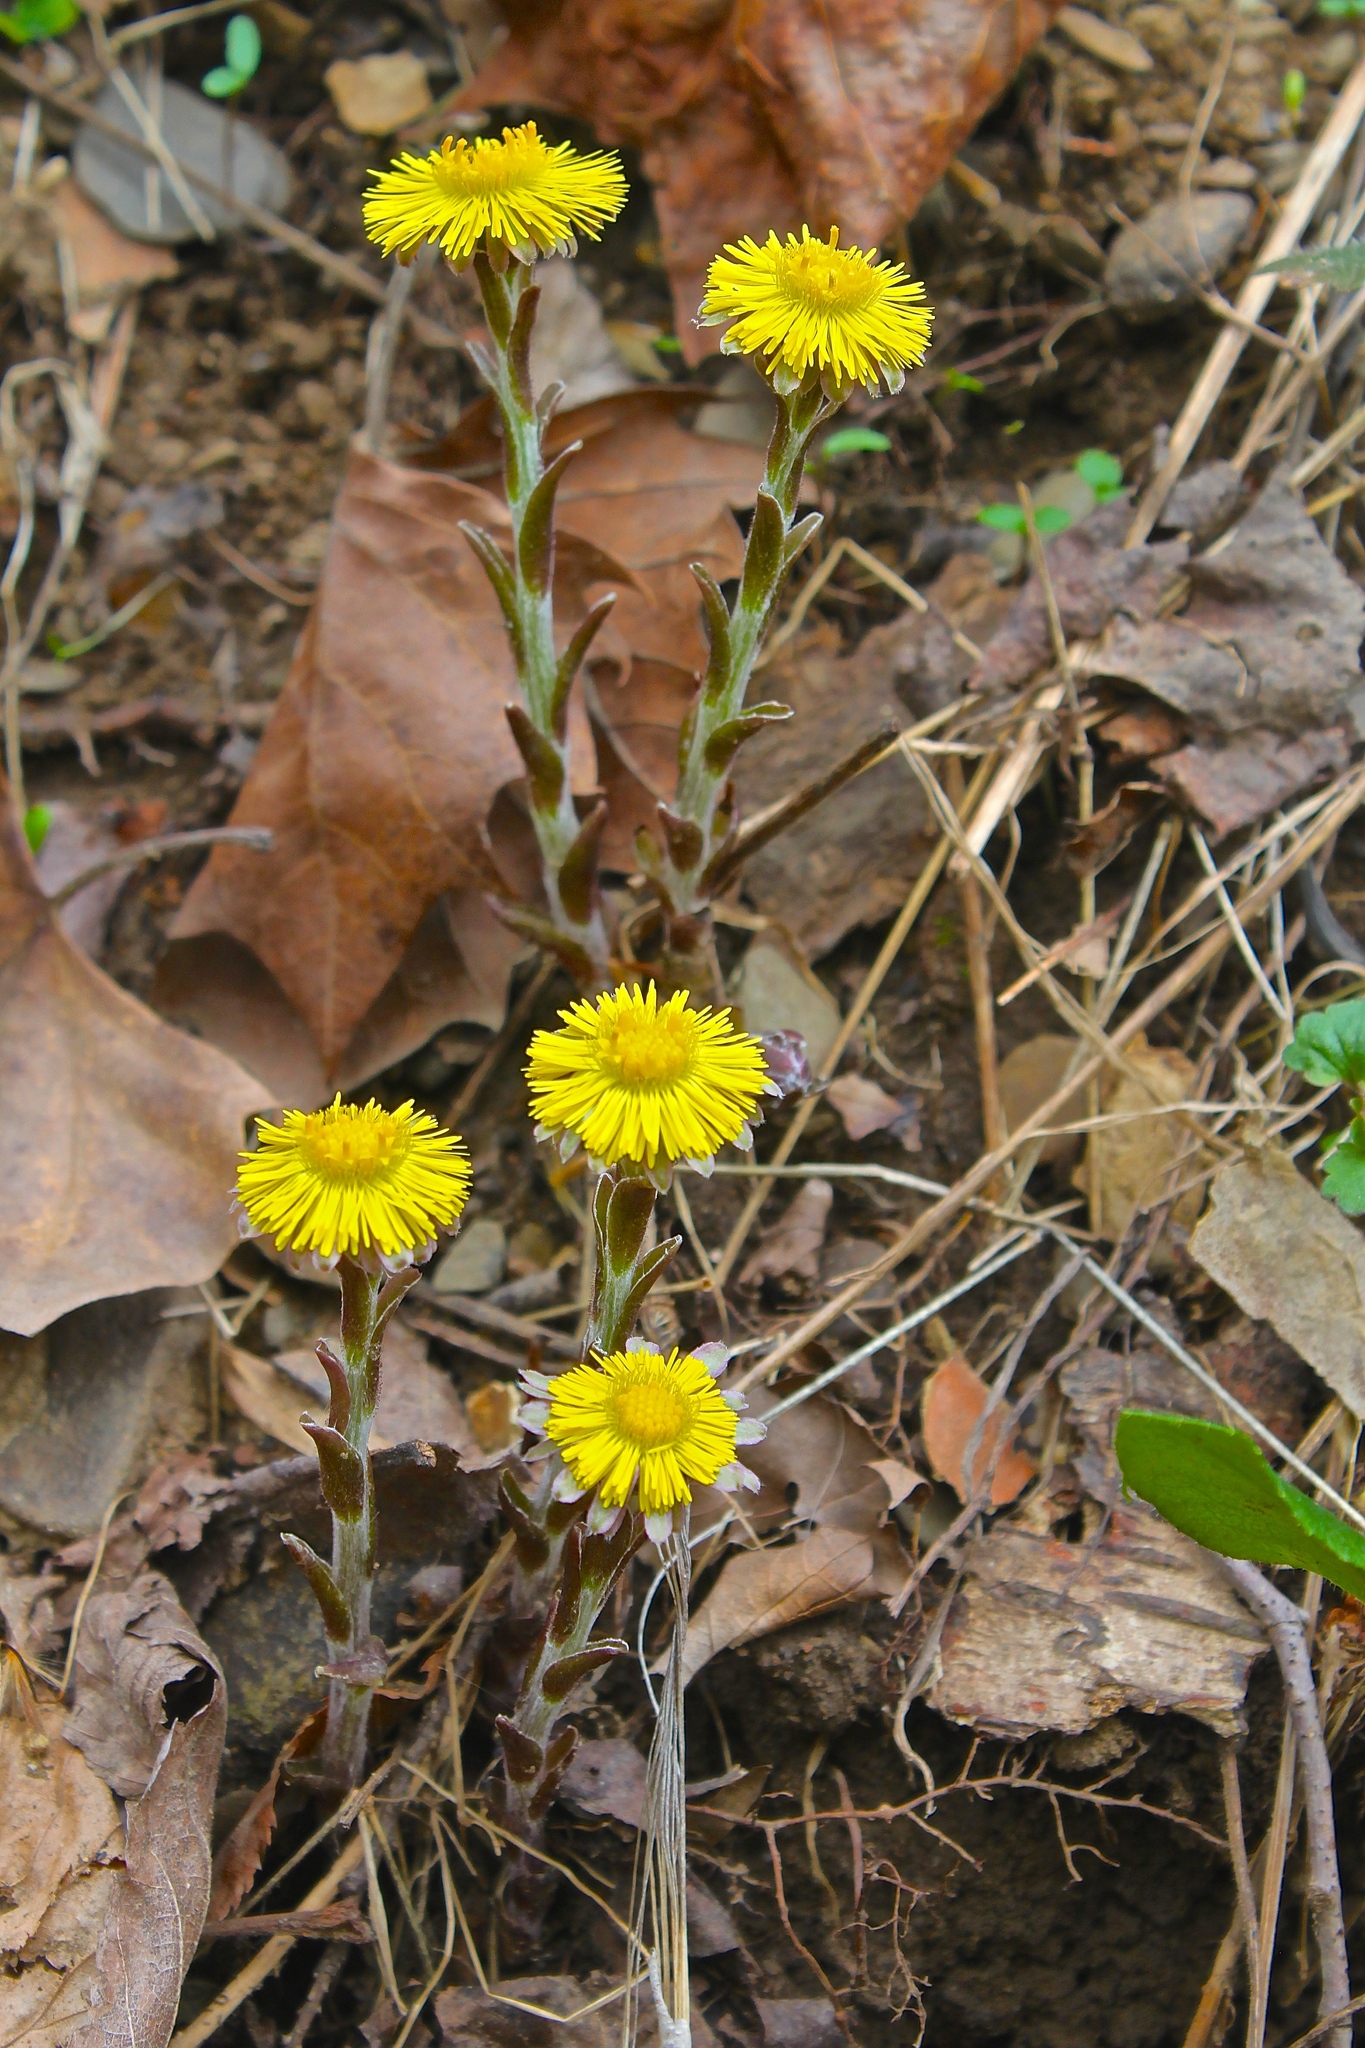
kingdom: Plantae
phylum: Tracheophyta
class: Magnoliopsida
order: Asterales
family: Asteraceae
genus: Tussilago
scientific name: Tussilago farfara
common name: Coltsfoot
